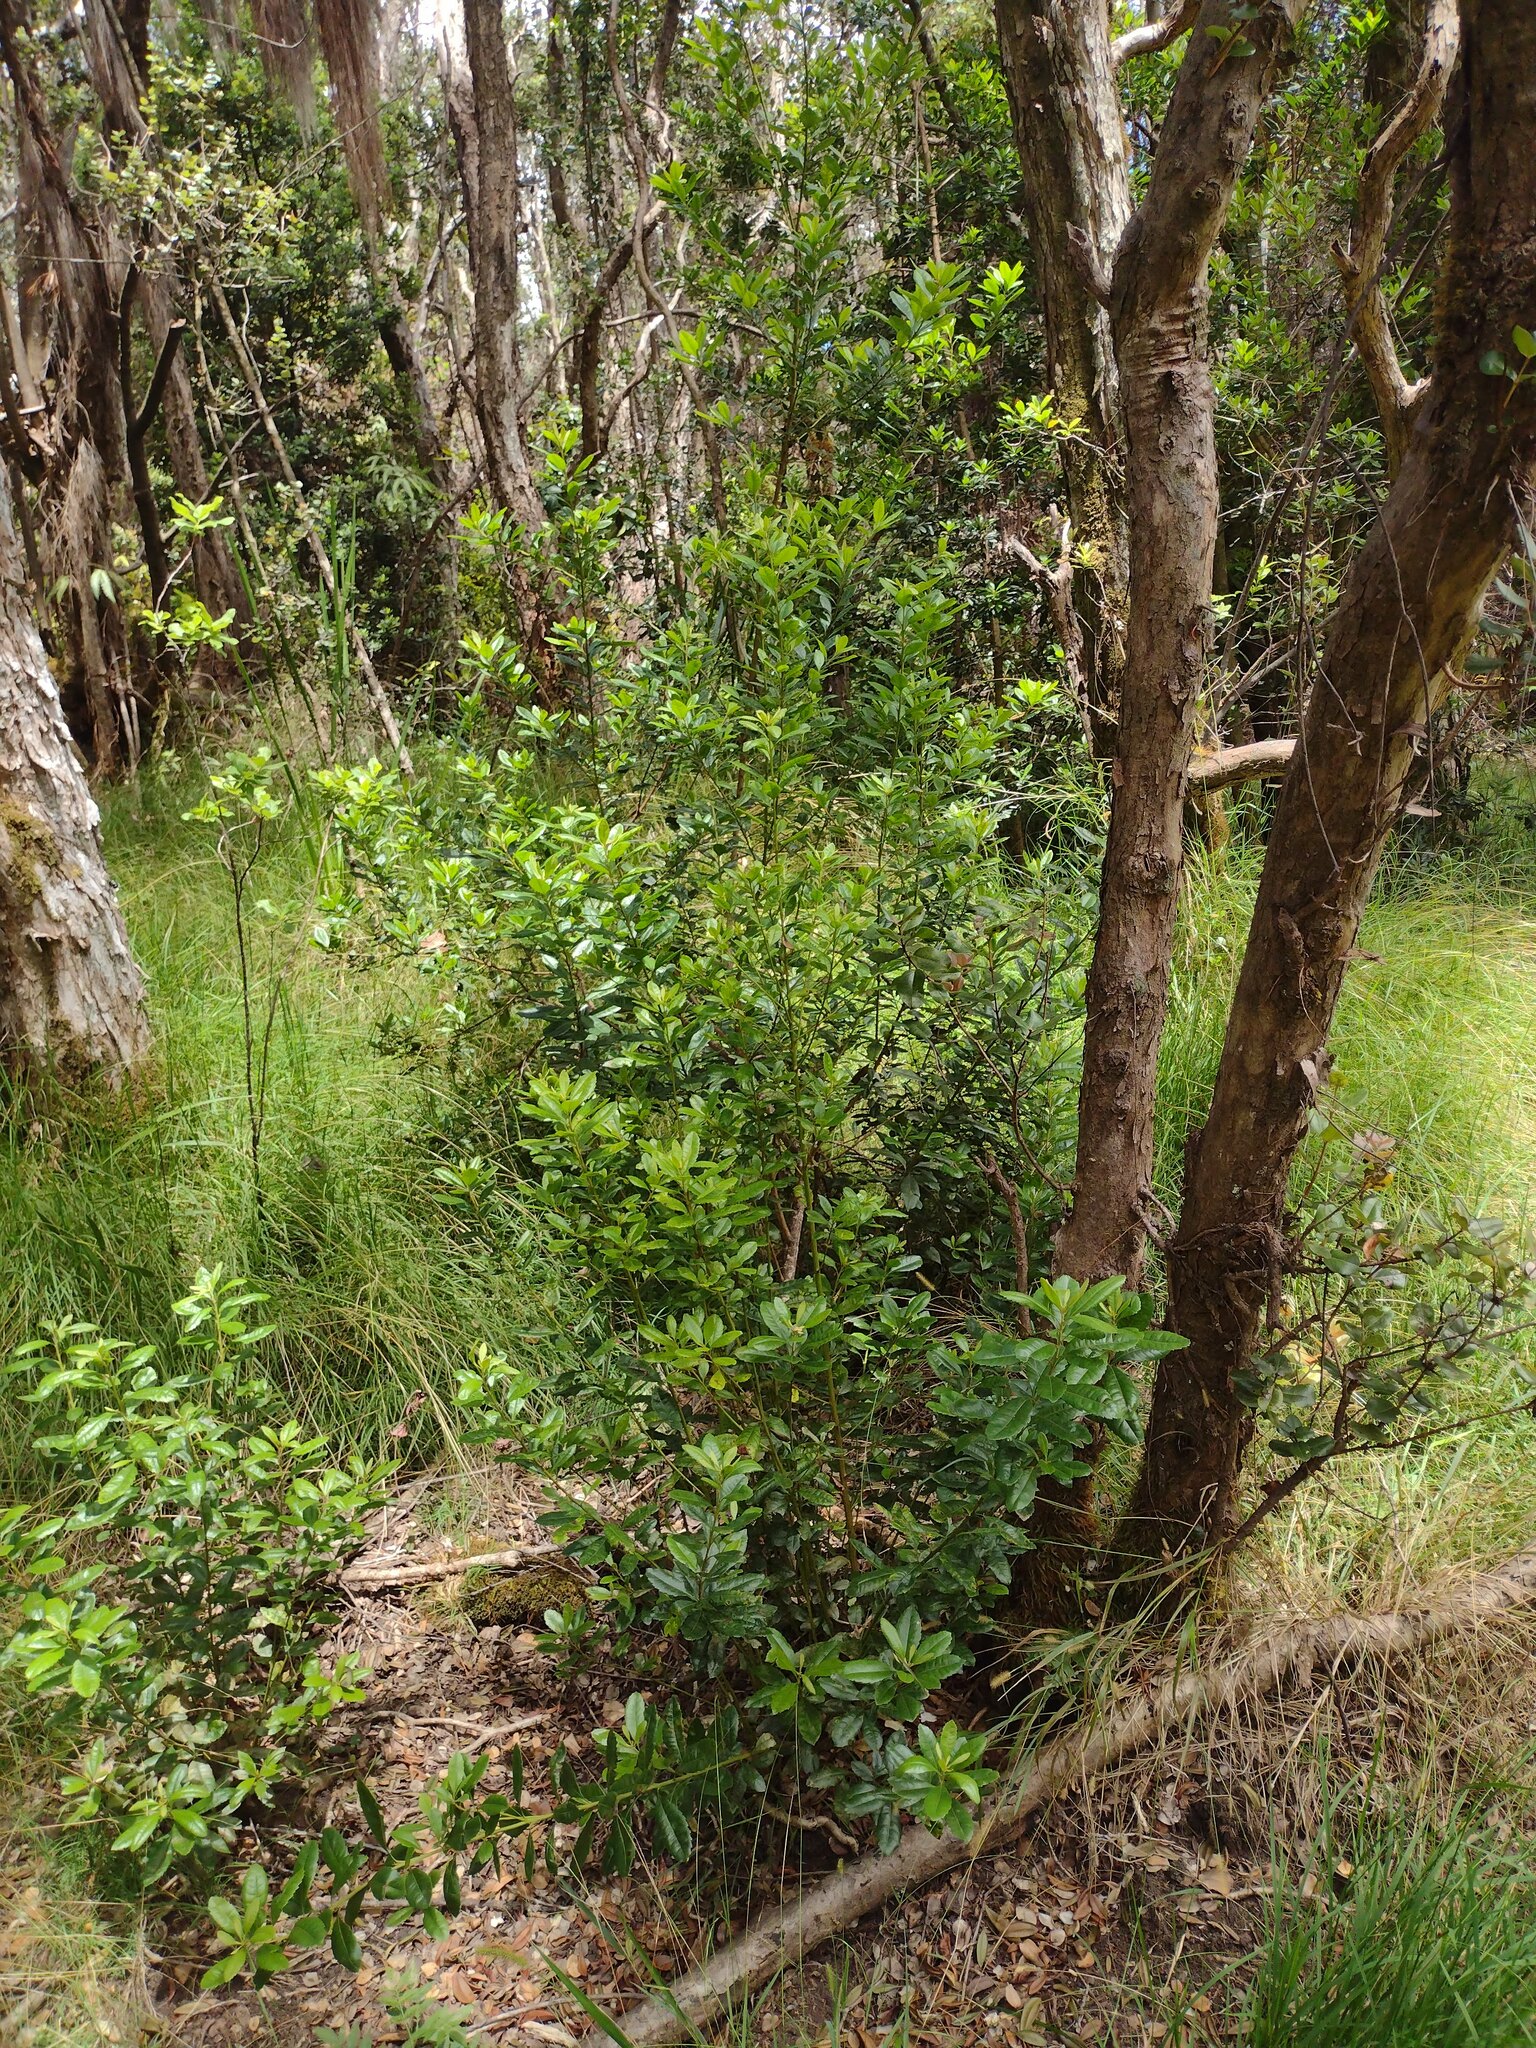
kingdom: Plantae
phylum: Tracheophyta
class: Magnoliopsida
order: Fagales
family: Myricaceae
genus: Morella
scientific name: Morella faya
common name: Firetree
